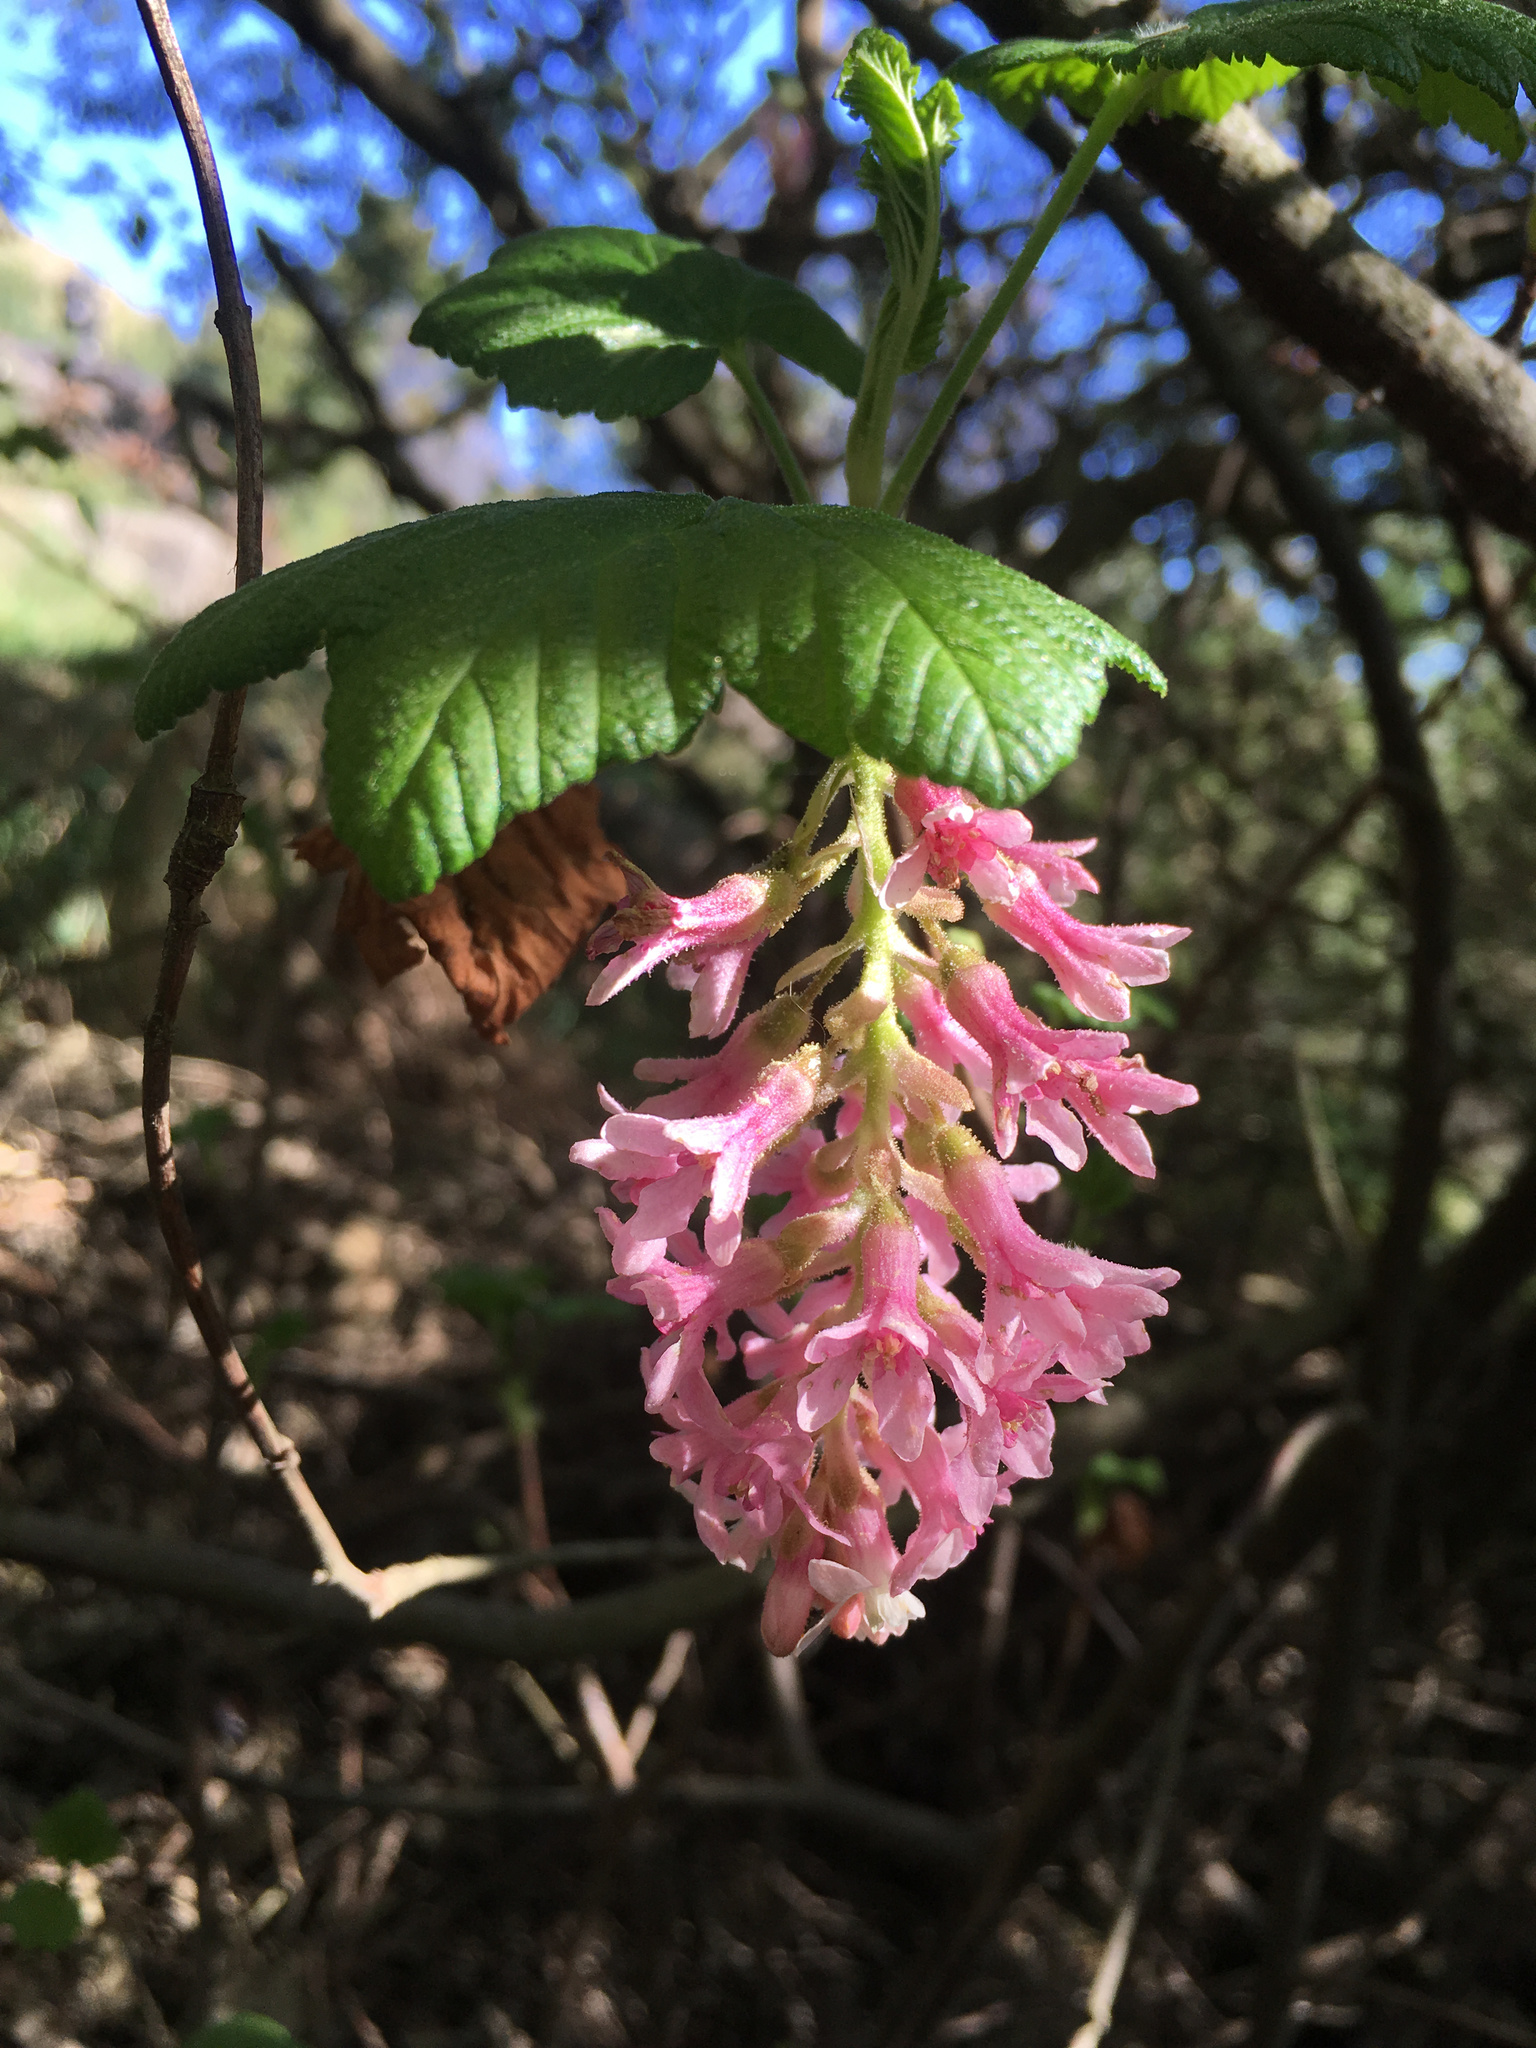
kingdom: Plantae
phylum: Tracheophyta
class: Magnoliopsida
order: Saxifragales
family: Grossulariaceae
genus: Ribes
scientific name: Ribes sanguineum
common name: Flowering currant
